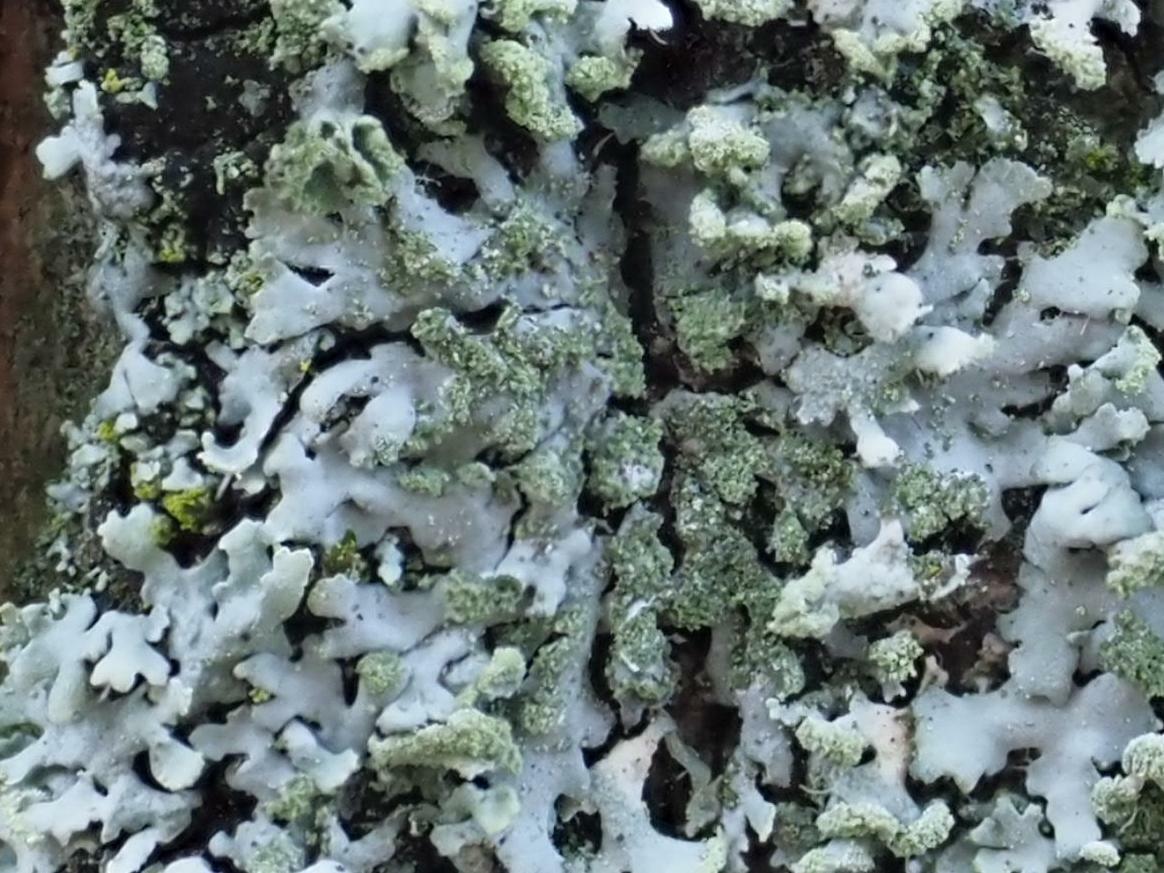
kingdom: Fungi
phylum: Ascomycota
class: Lecanoromycetes
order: Caliciales
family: Physciaceae
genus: Phaeophyscia
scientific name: Phaeophyscia orbicularis
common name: Mealy shadow lichen
